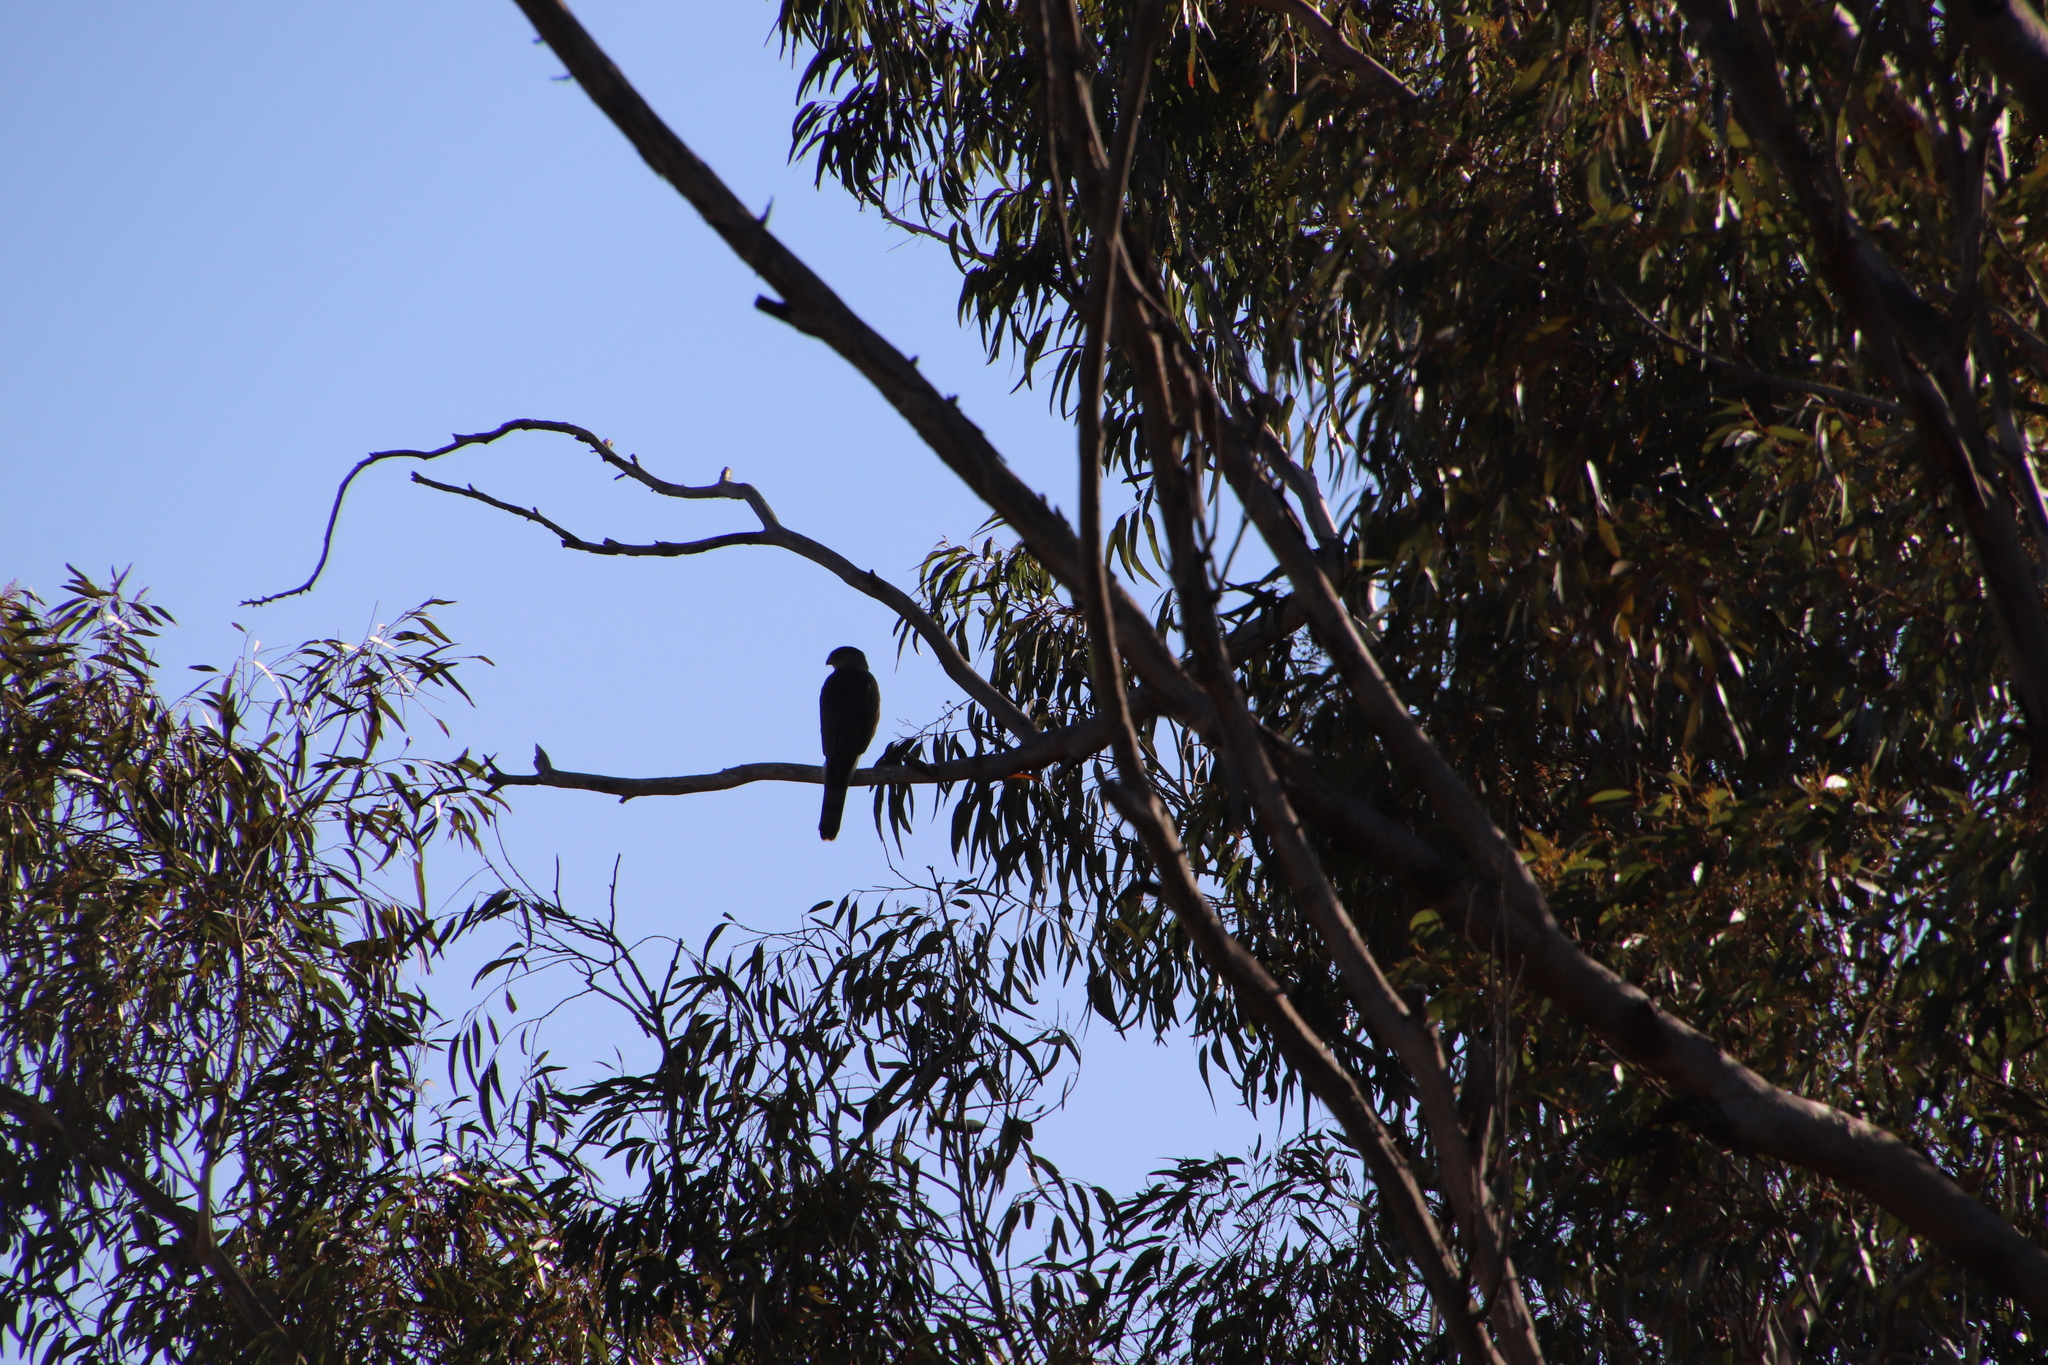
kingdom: Animalia
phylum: Chordata
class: Aves
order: Accipitriformes
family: Accipitridae
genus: Accipiter
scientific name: Accipiter cooperii
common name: Cooper's hawk
